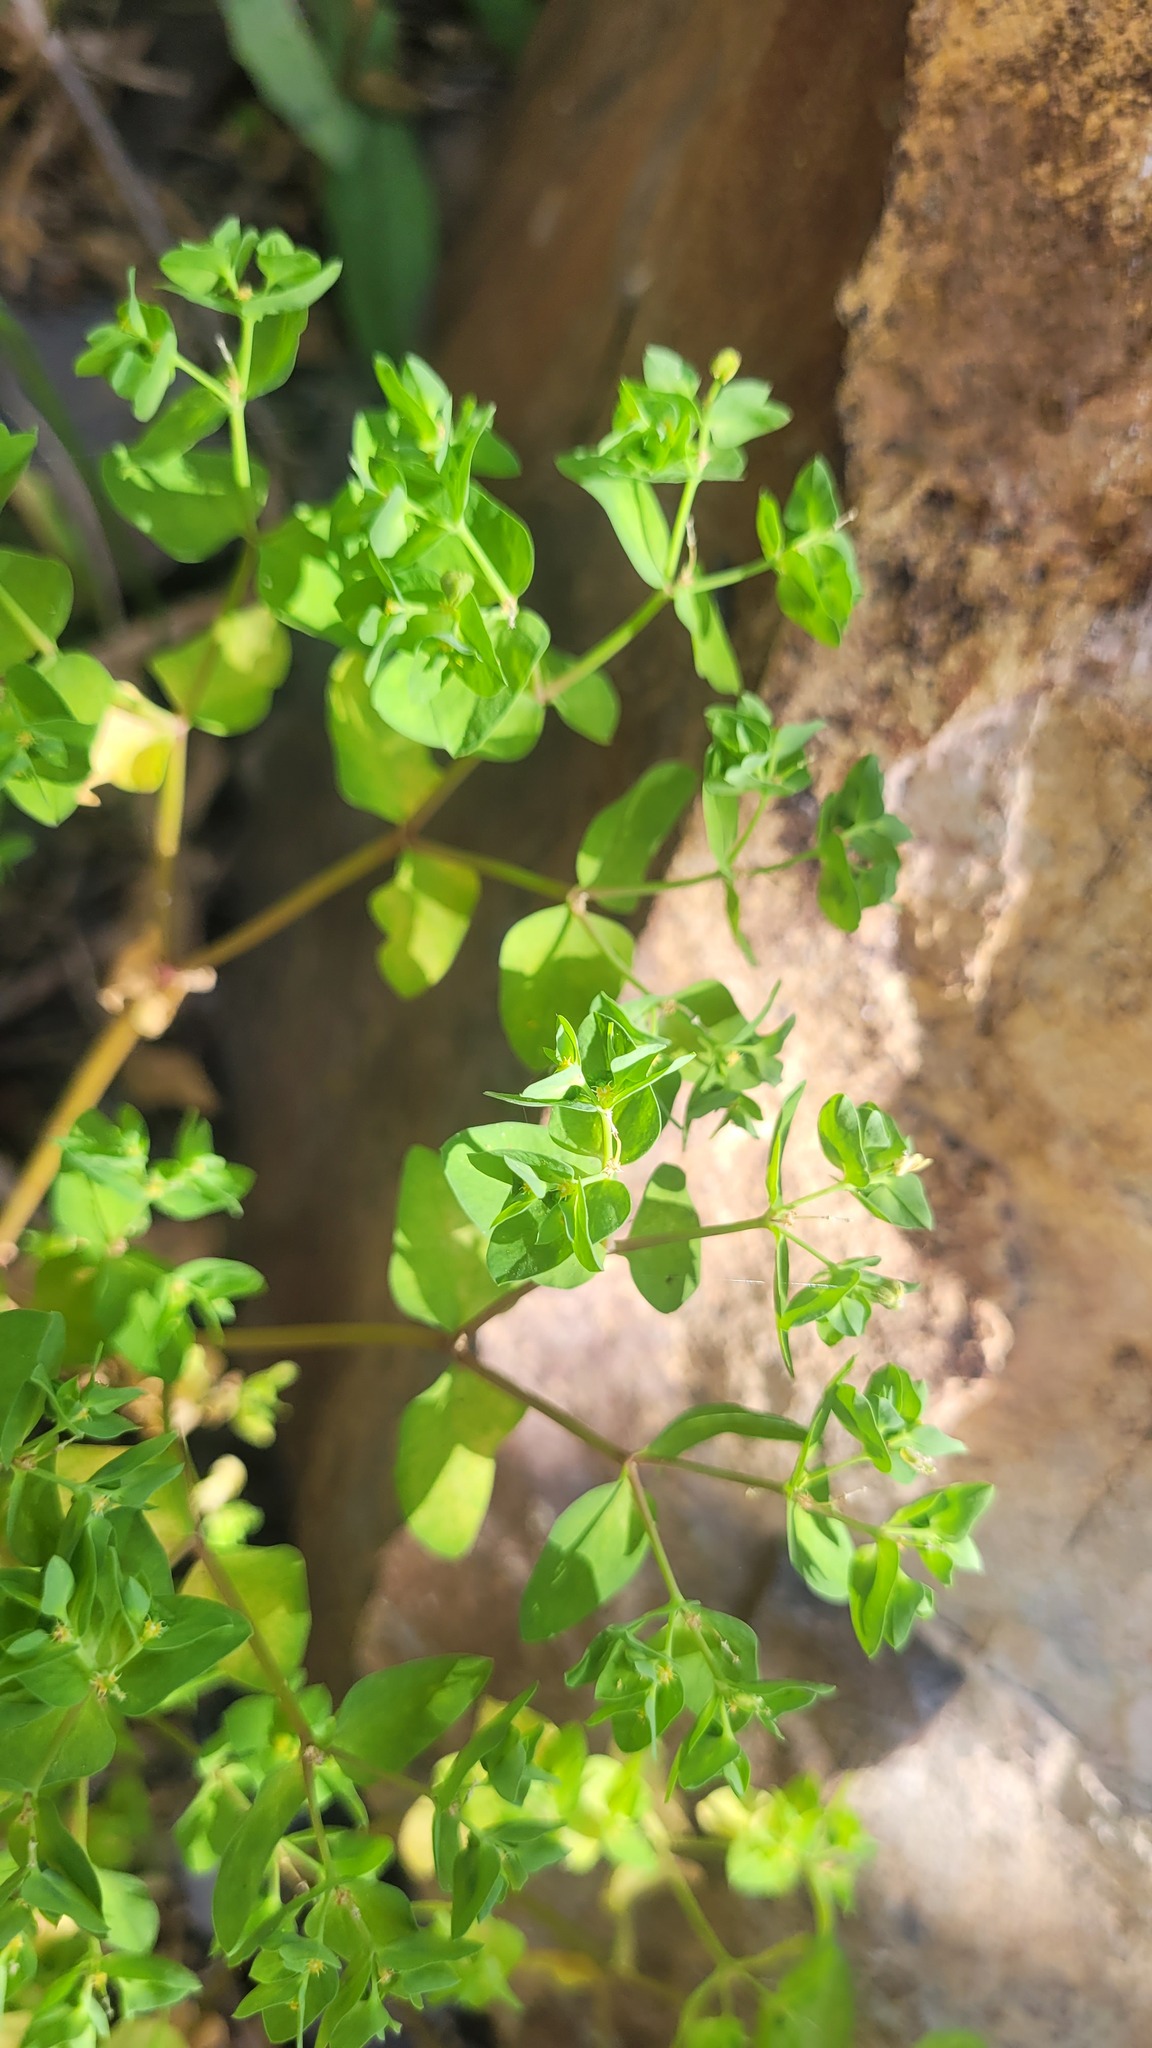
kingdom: Plantae
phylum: Tracheophyta
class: Magnoliopsida
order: Malpighiales
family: Euphorbiaceae
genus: Euphorbia
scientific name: Euphorbia peplus
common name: Petty spurge
